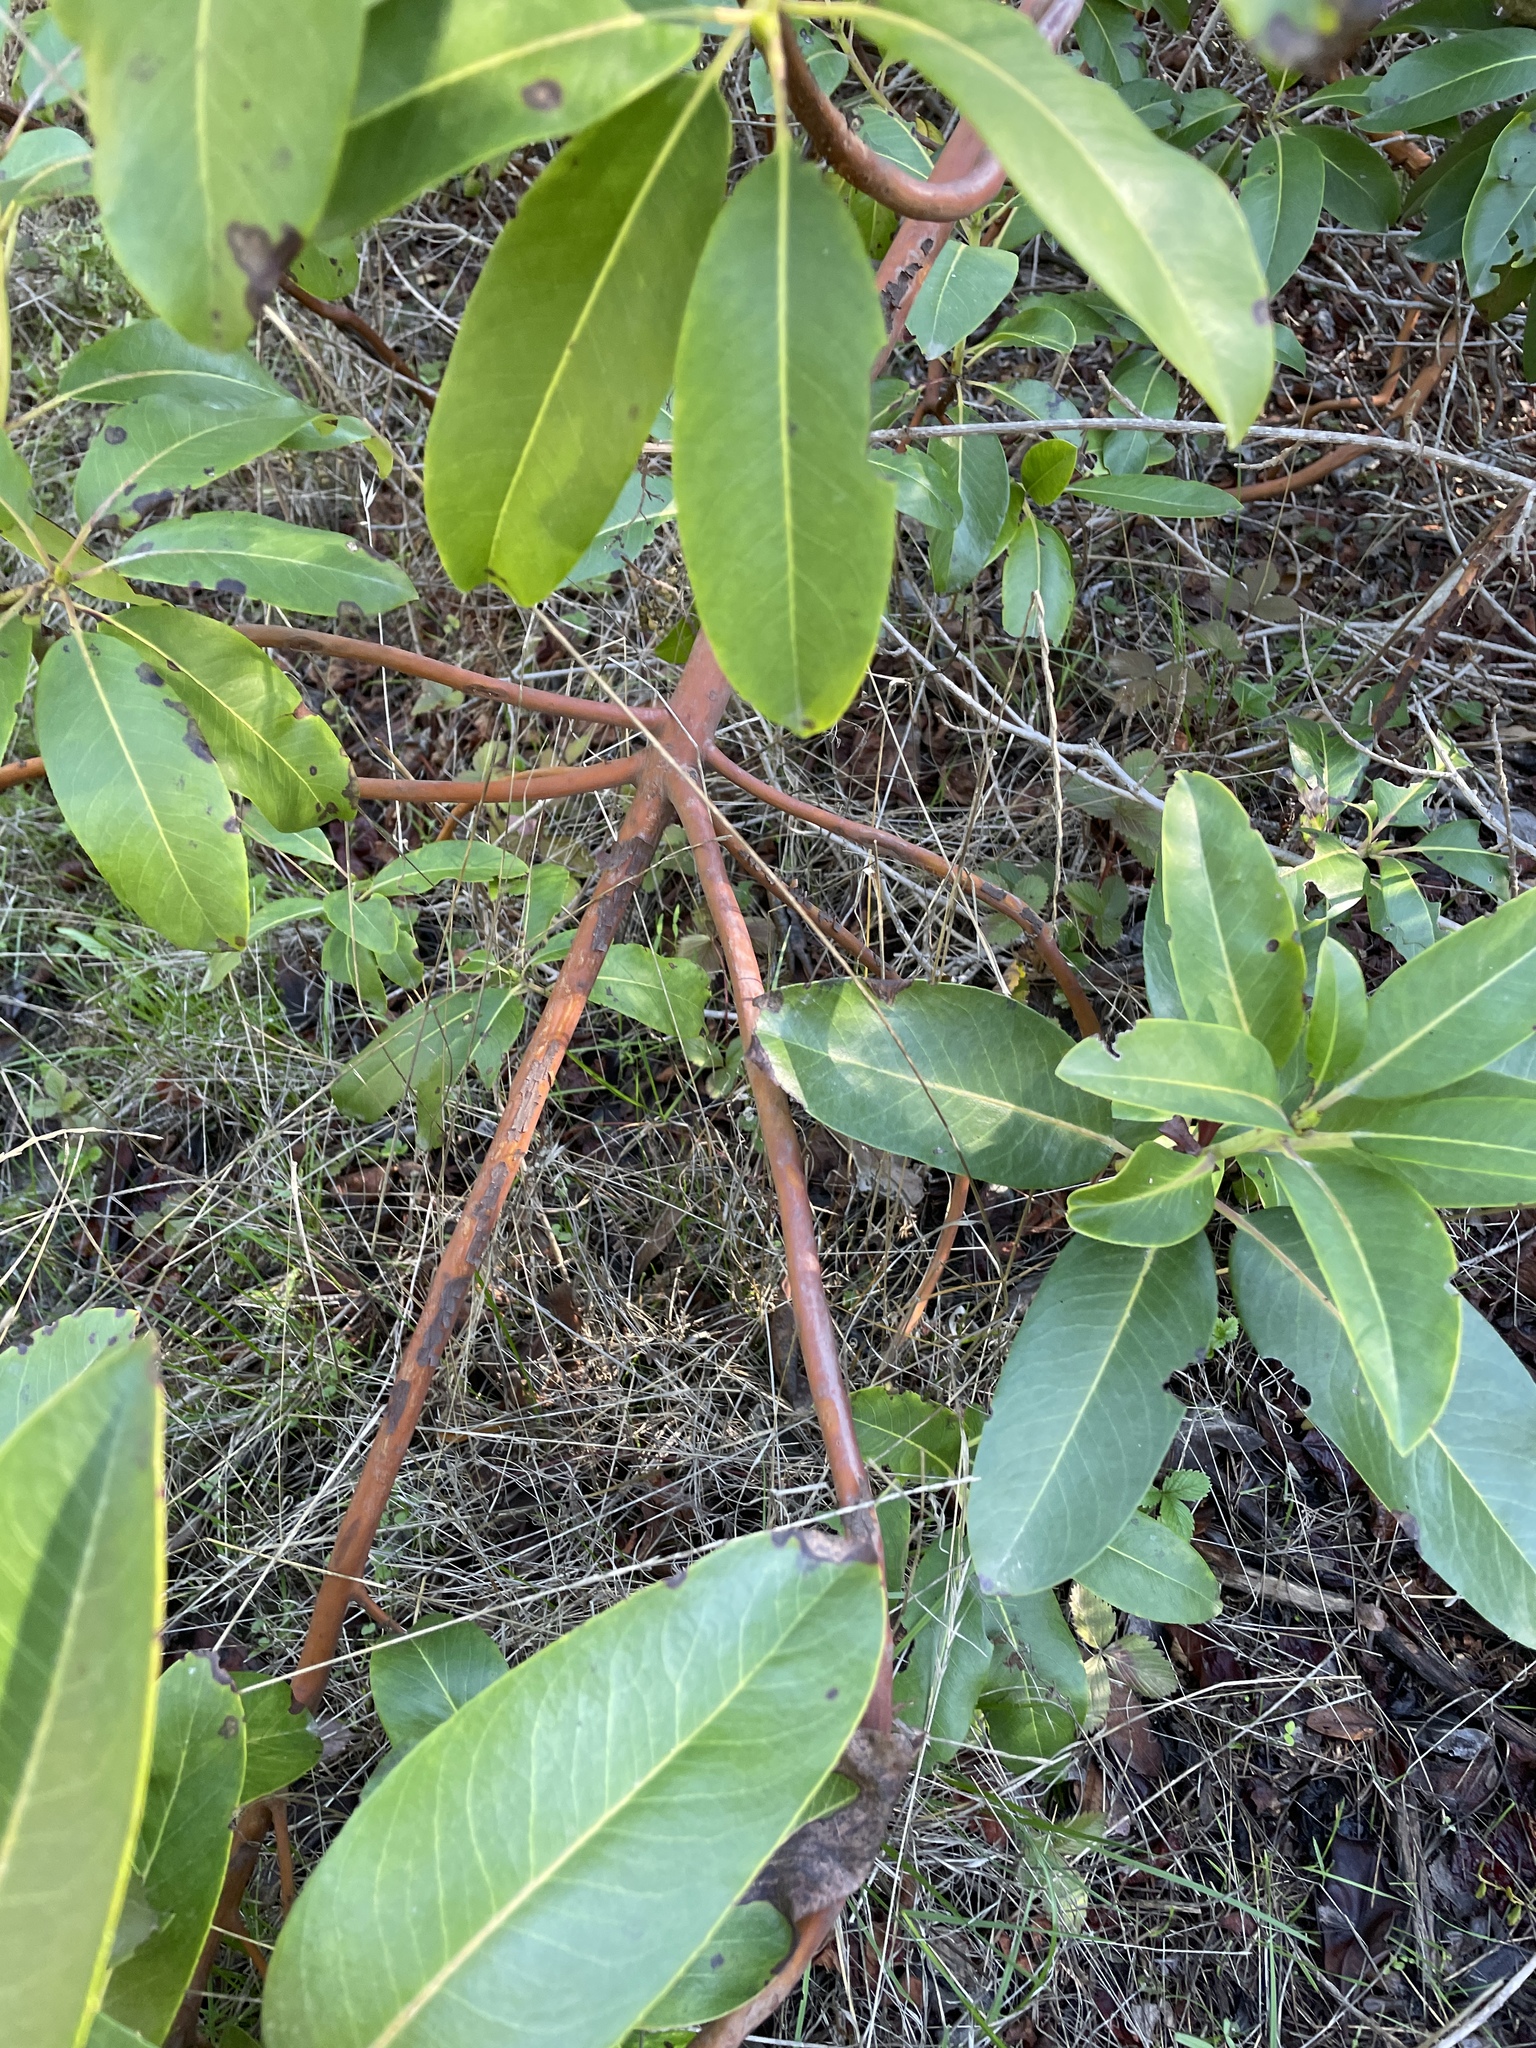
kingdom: Plantae
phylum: Tracheophyta
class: Magnoliopsida
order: Ericales
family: Ericaceae
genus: Arbutus
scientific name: Arbutus menziesii
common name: Pacific madrone
